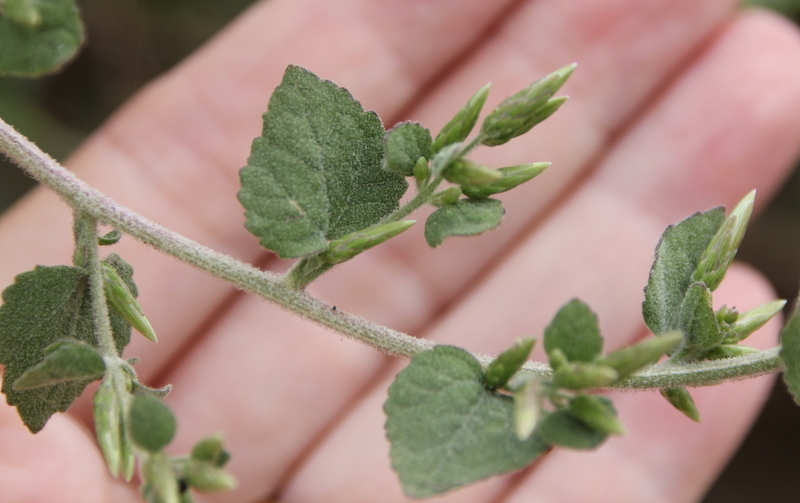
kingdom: Plantae
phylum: Tracheophyta
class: Magnoliopsida
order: Asterales
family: Asteraceae
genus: Brickellia
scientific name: Brickellia californica
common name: California brickellbush
